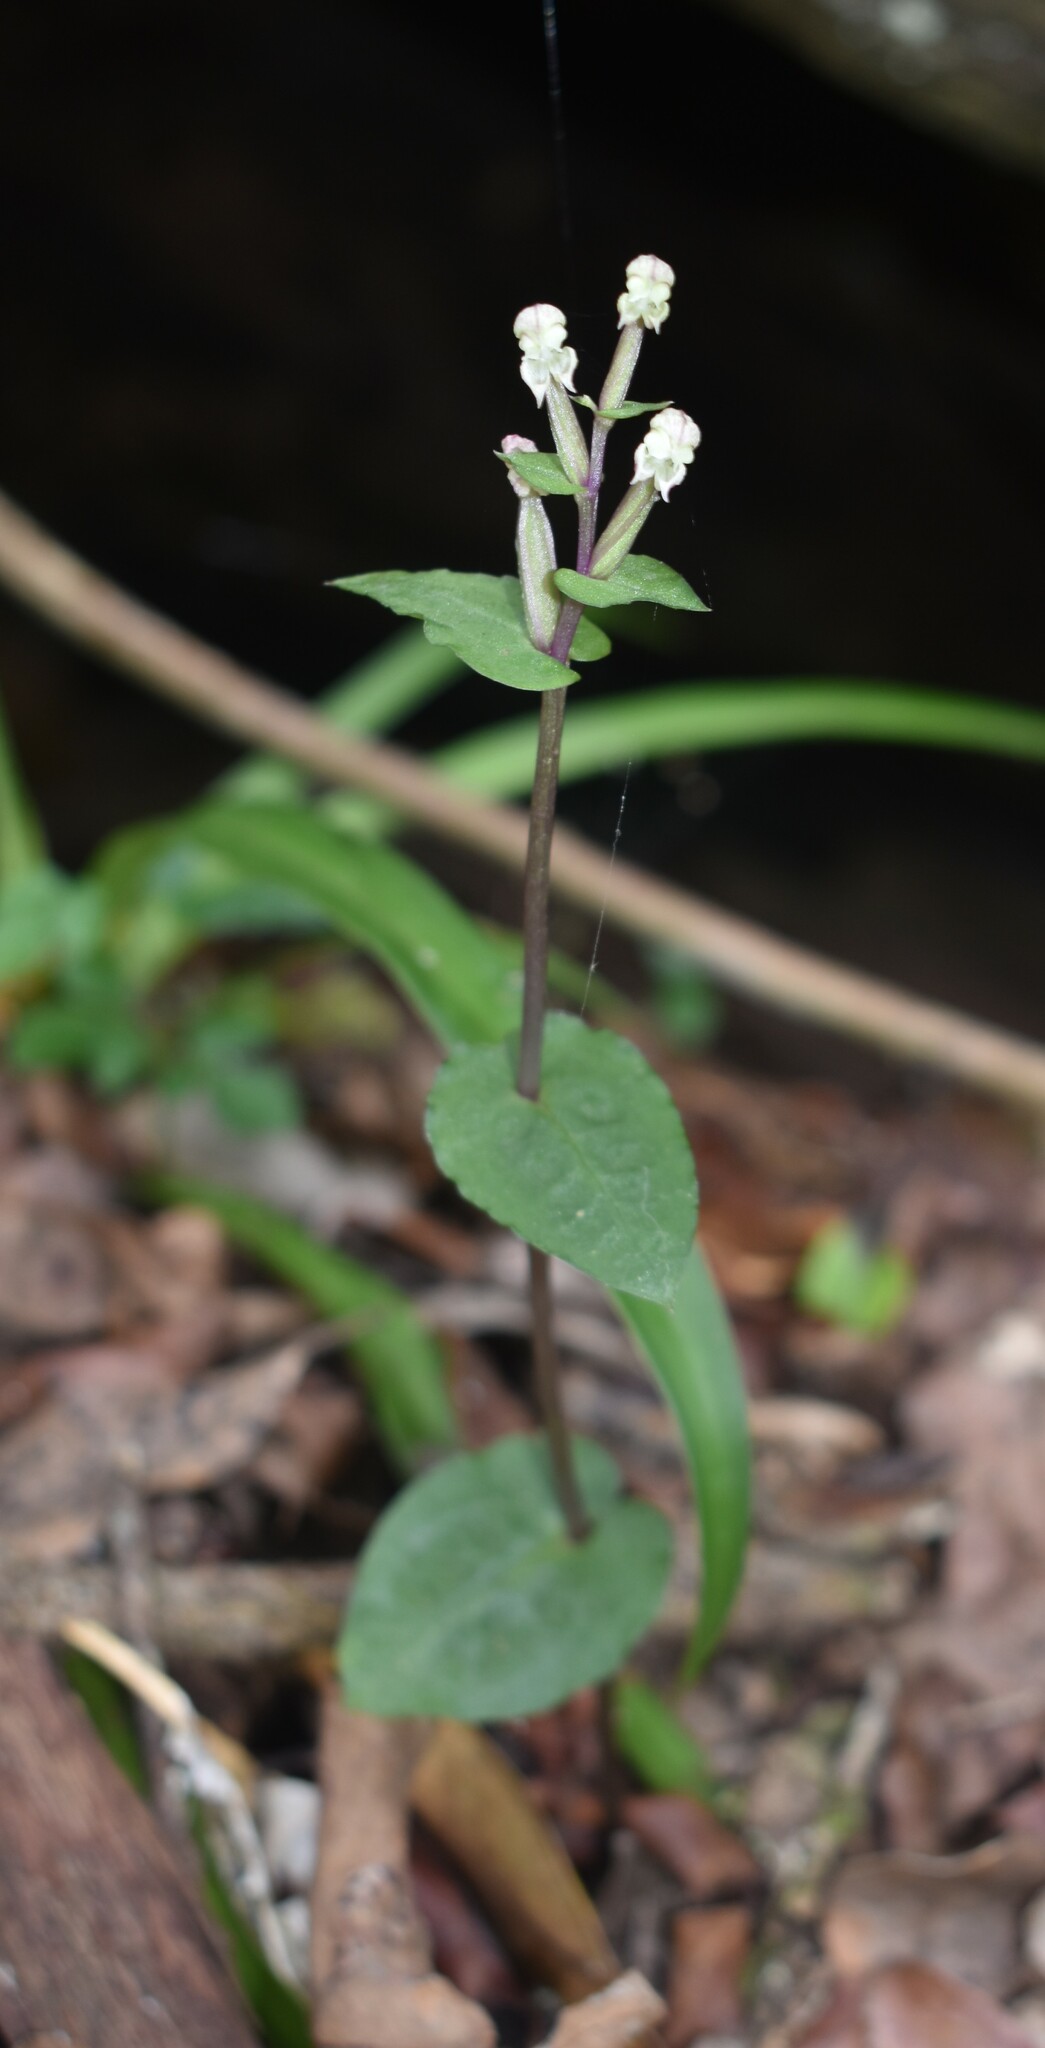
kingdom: Plantae
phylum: Tracheophyta
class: Liliopsida
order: Asparagales
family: Orchidaceae
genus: Disperis
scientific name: Disperis micrantha
